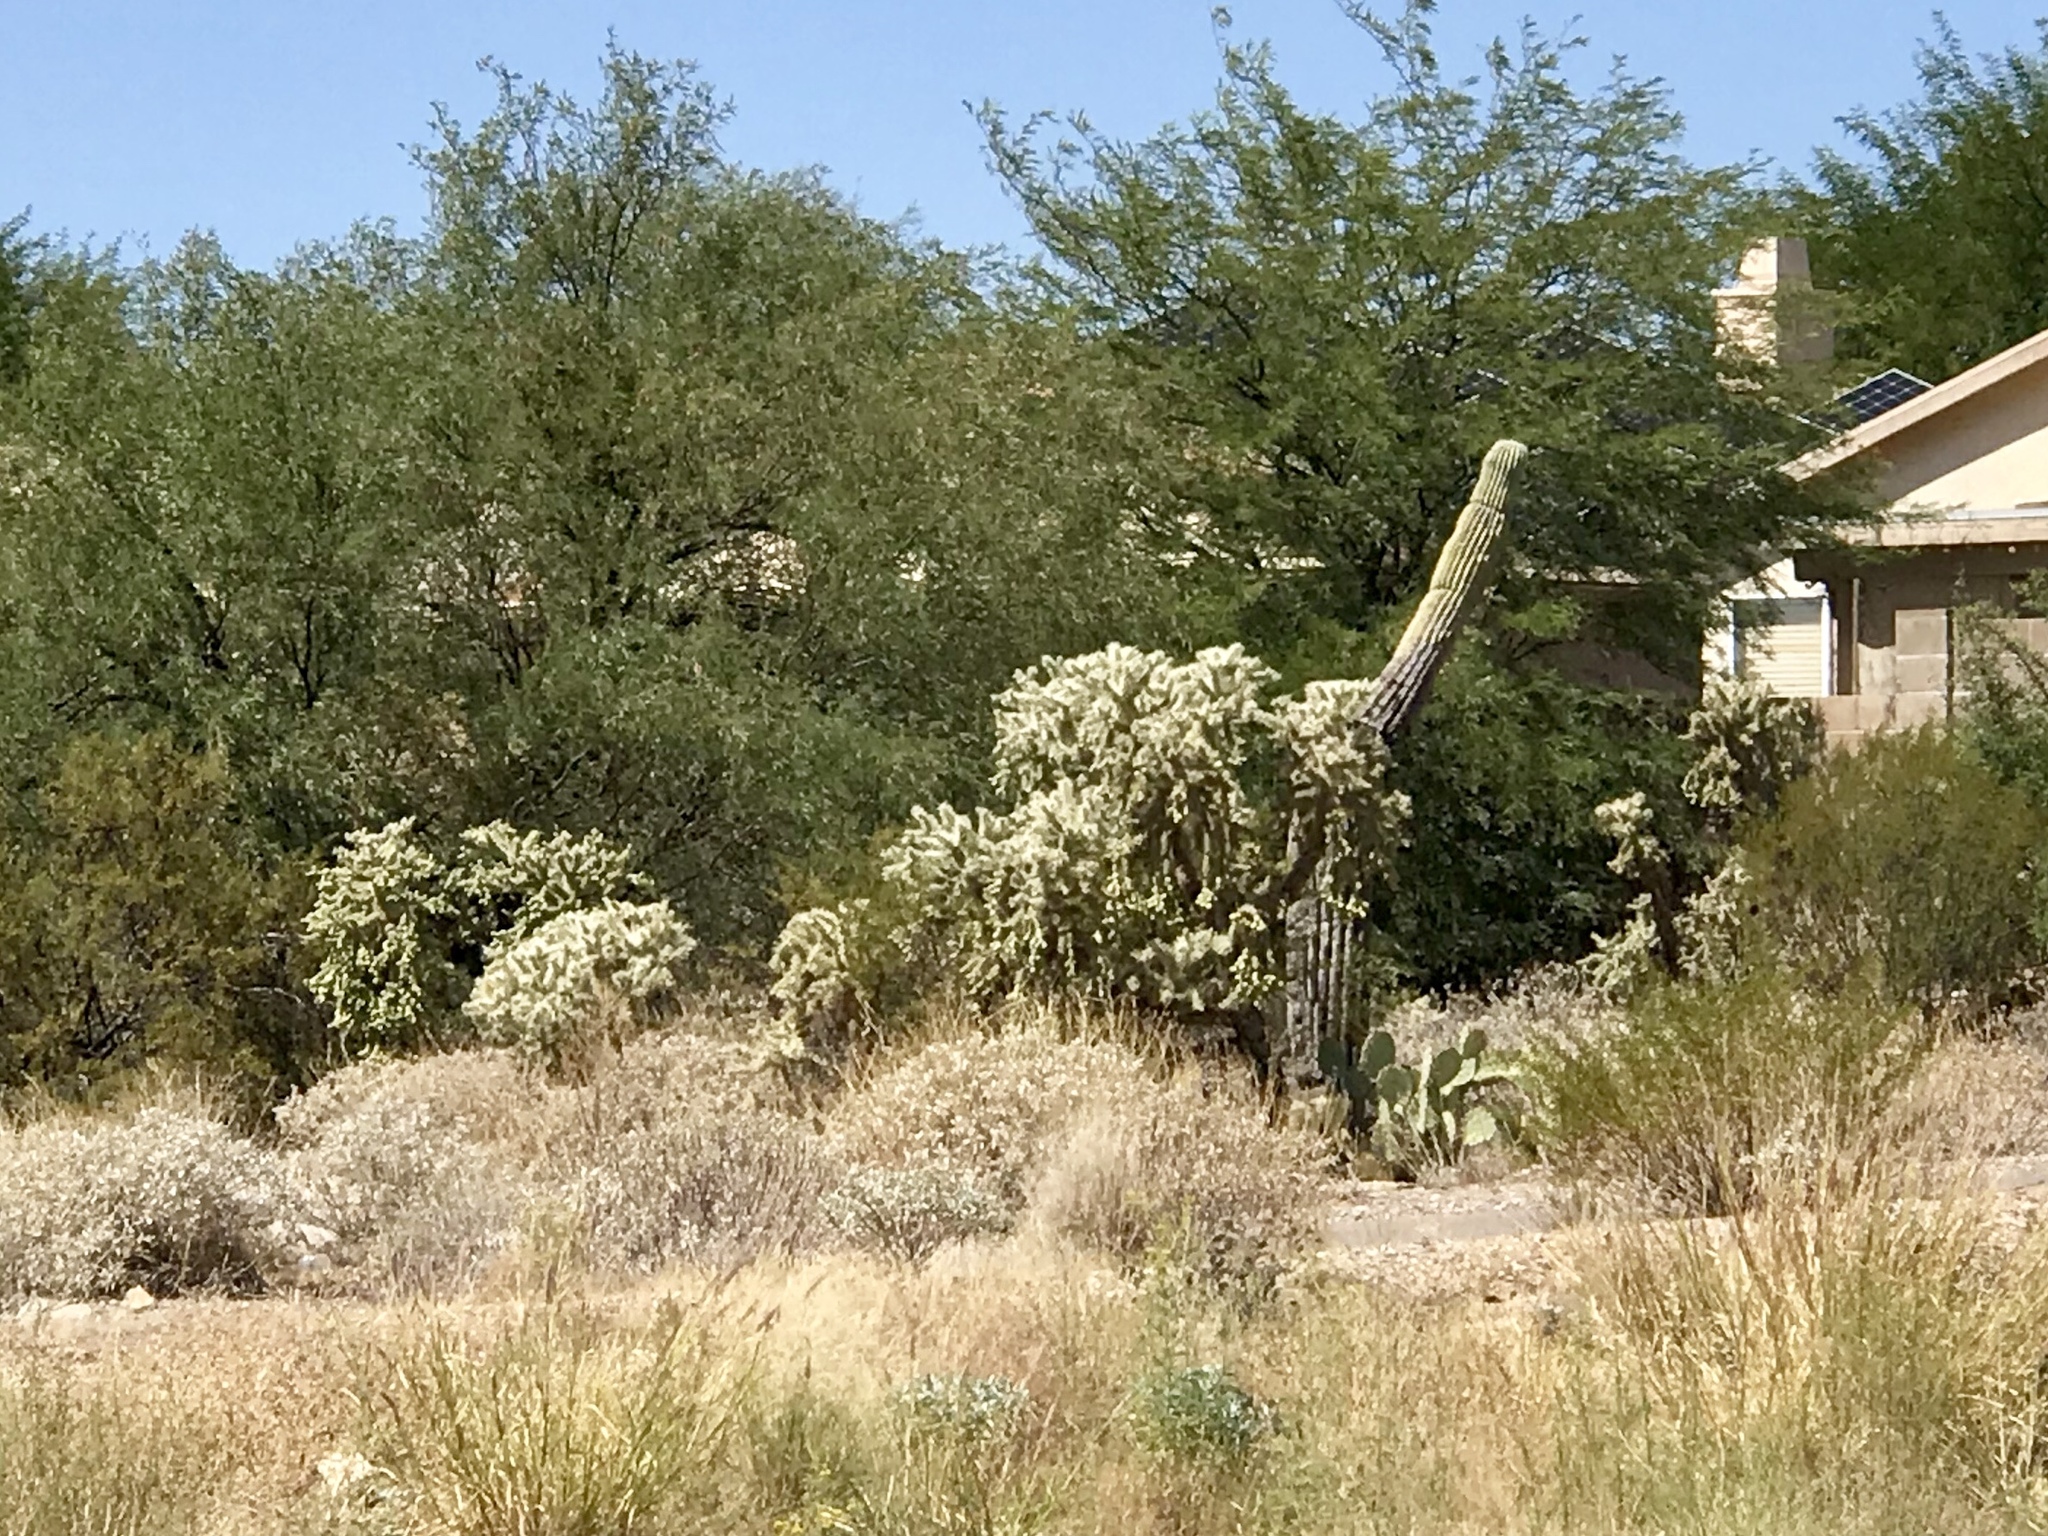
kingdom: Plantae
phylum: Tracheophyta
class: Magnoliopsida
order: Caryophyllales
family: Cactaceae
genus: Cylindropuntia
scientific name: Cylindropuntia fulgida
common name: Jumping cholla
